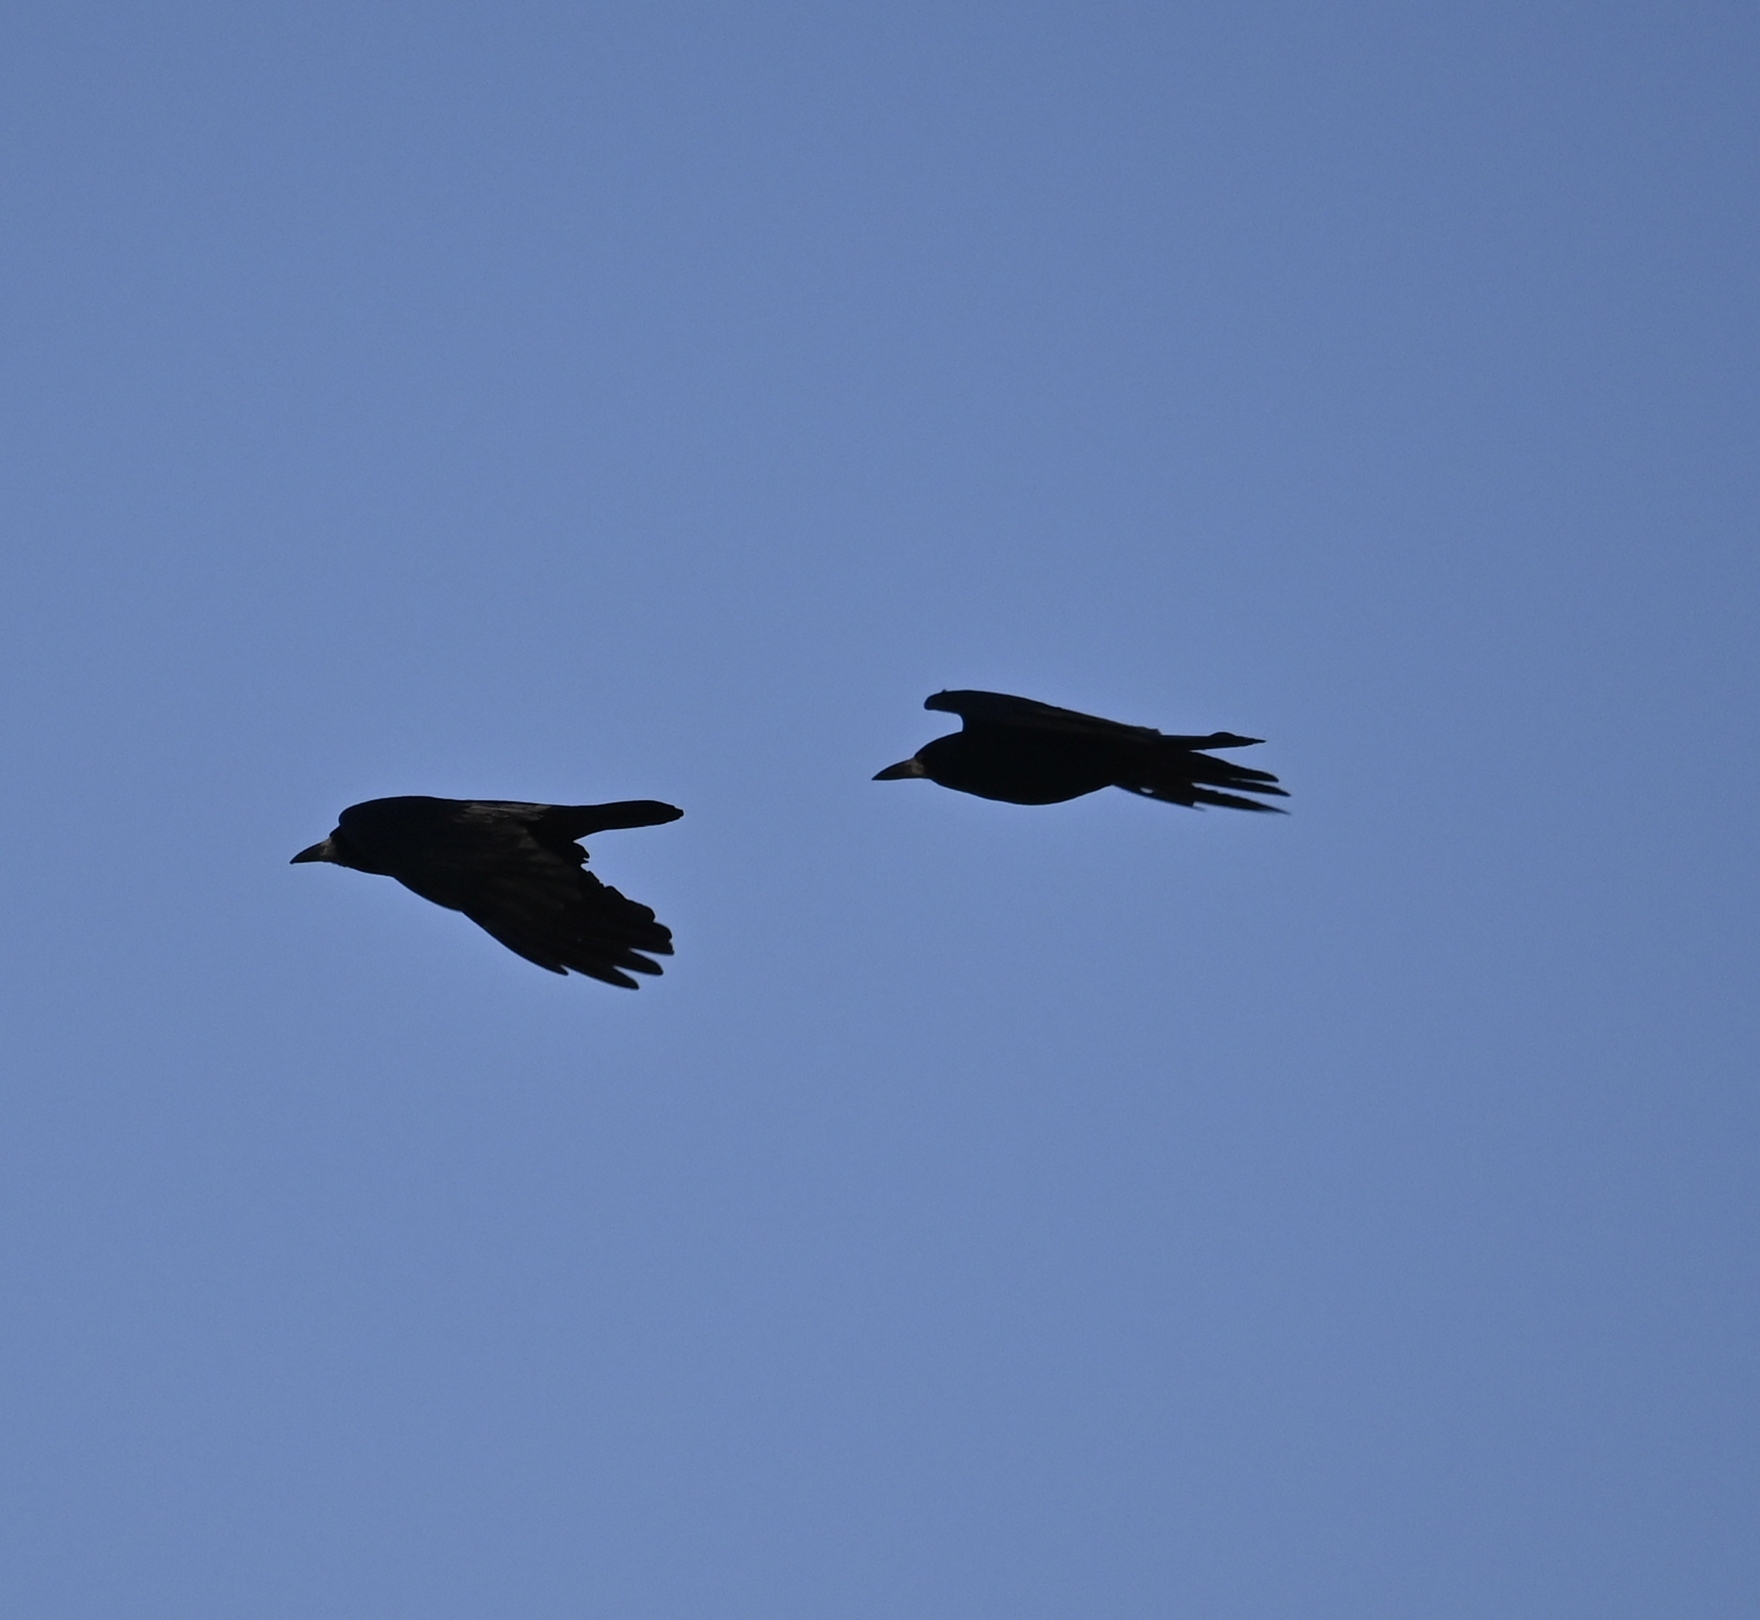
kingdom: Animalia
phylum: Chordata
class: Aves
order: Passeriformes
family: Corvidae
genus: Corvus
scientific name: Corvus frugilegus
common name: Rook
